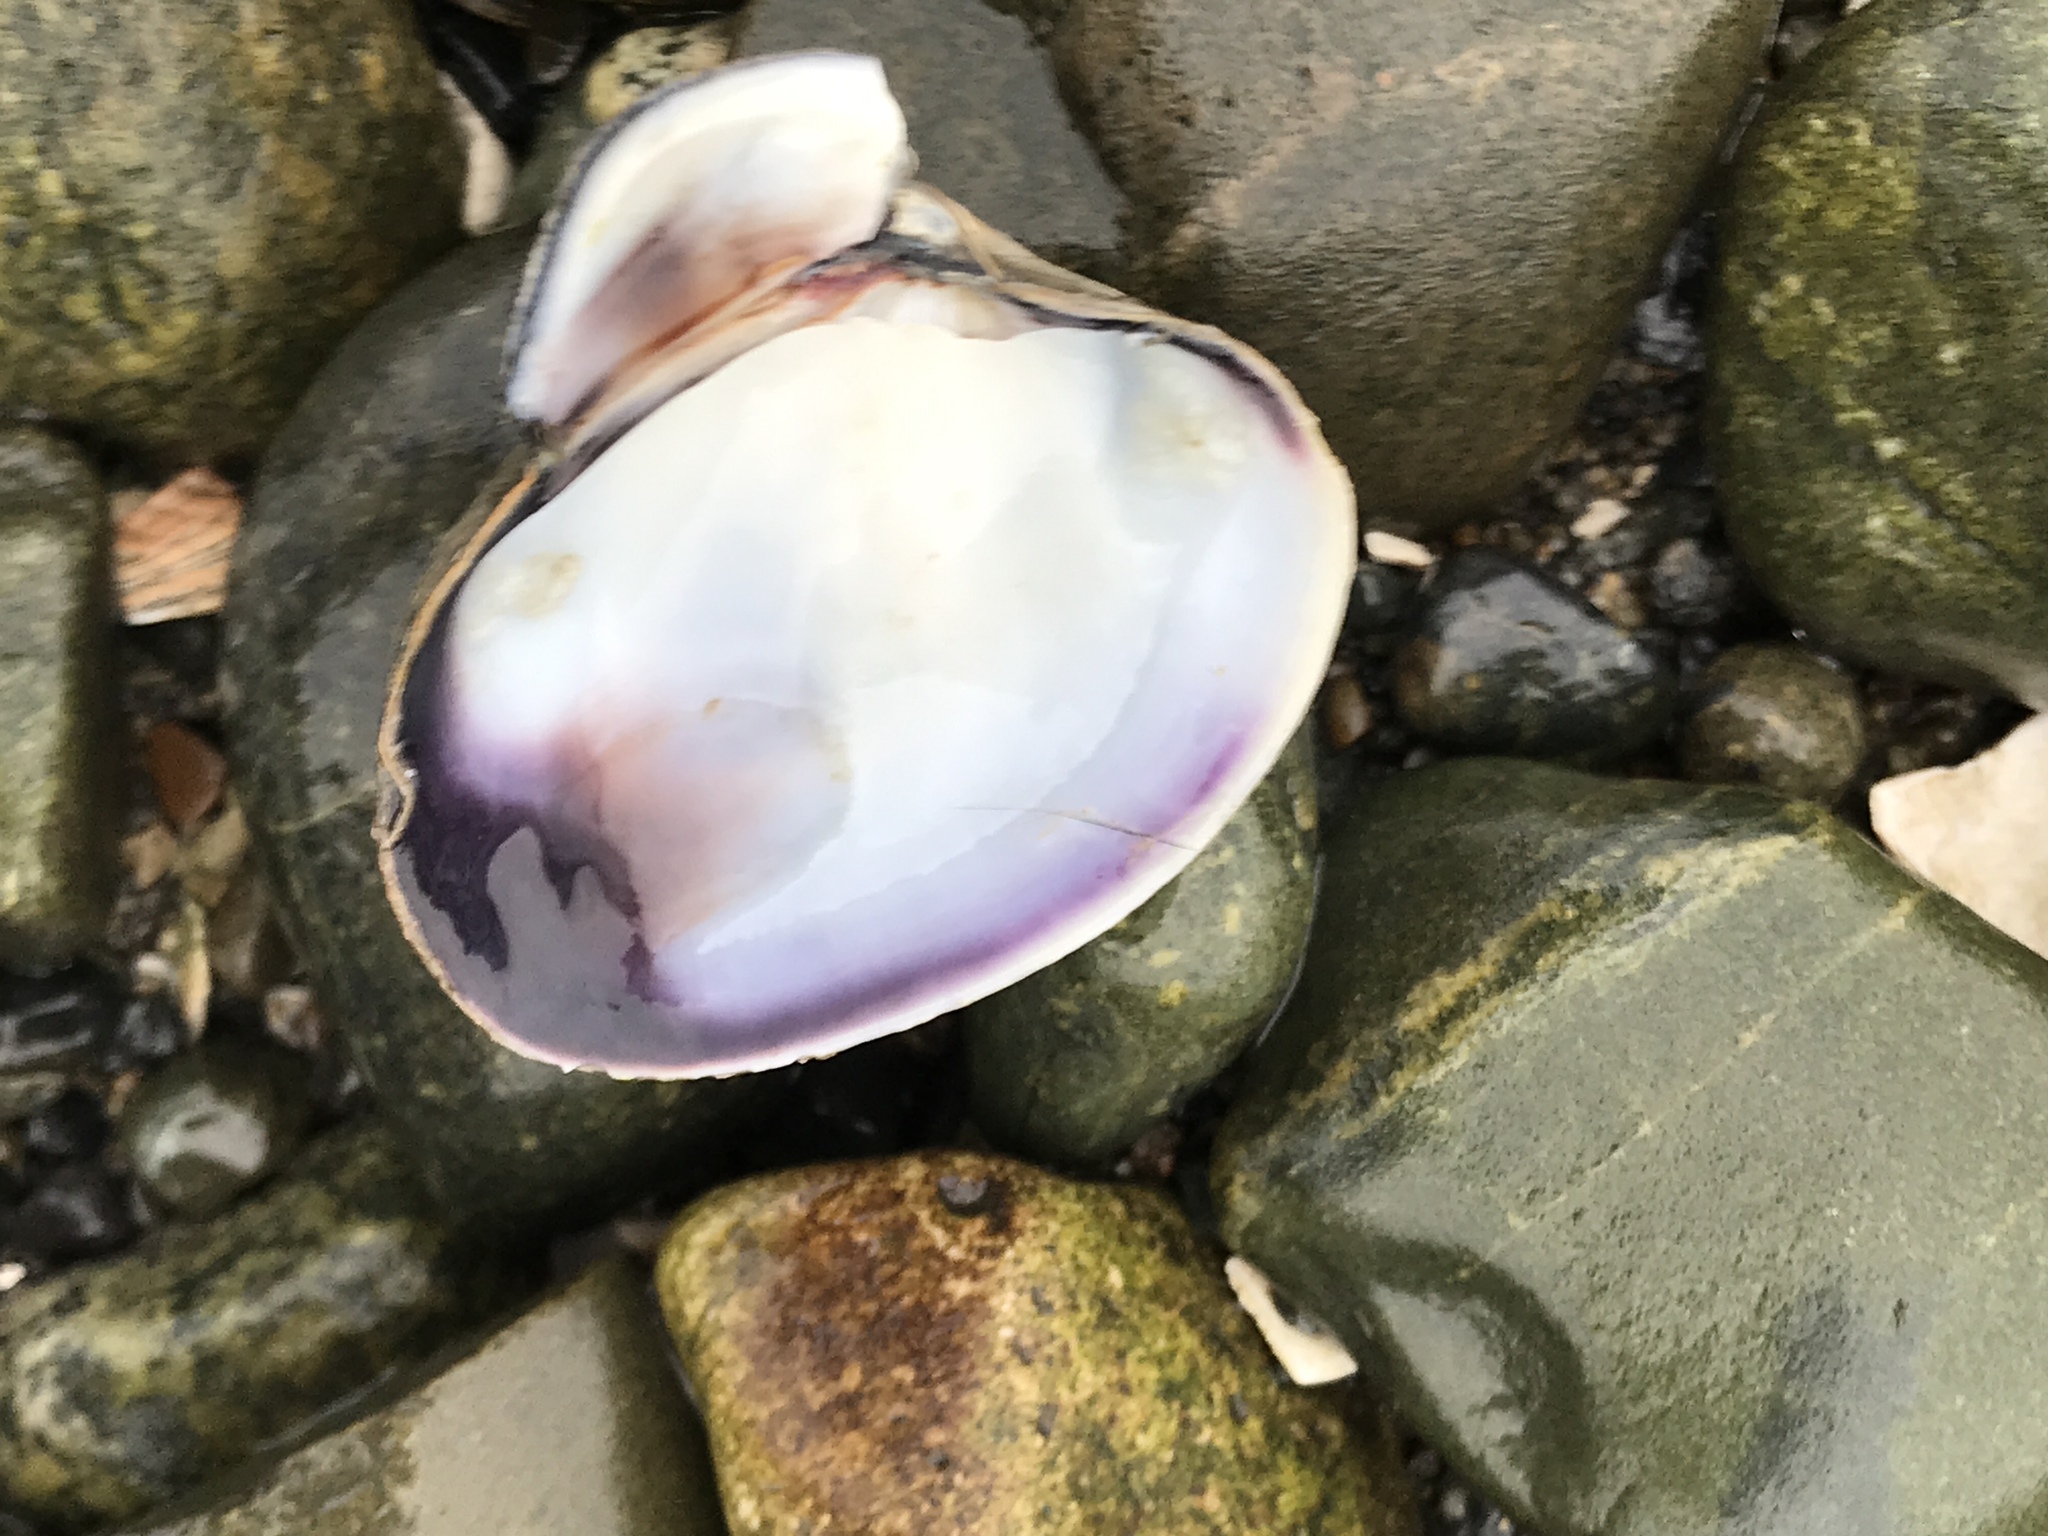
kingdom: Animalia
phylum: Mollusca
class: Bivalvia
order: Venerida
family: Veneridae
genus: Ruditapes
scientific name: Ruditapes philippinarum
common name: Manila clam
